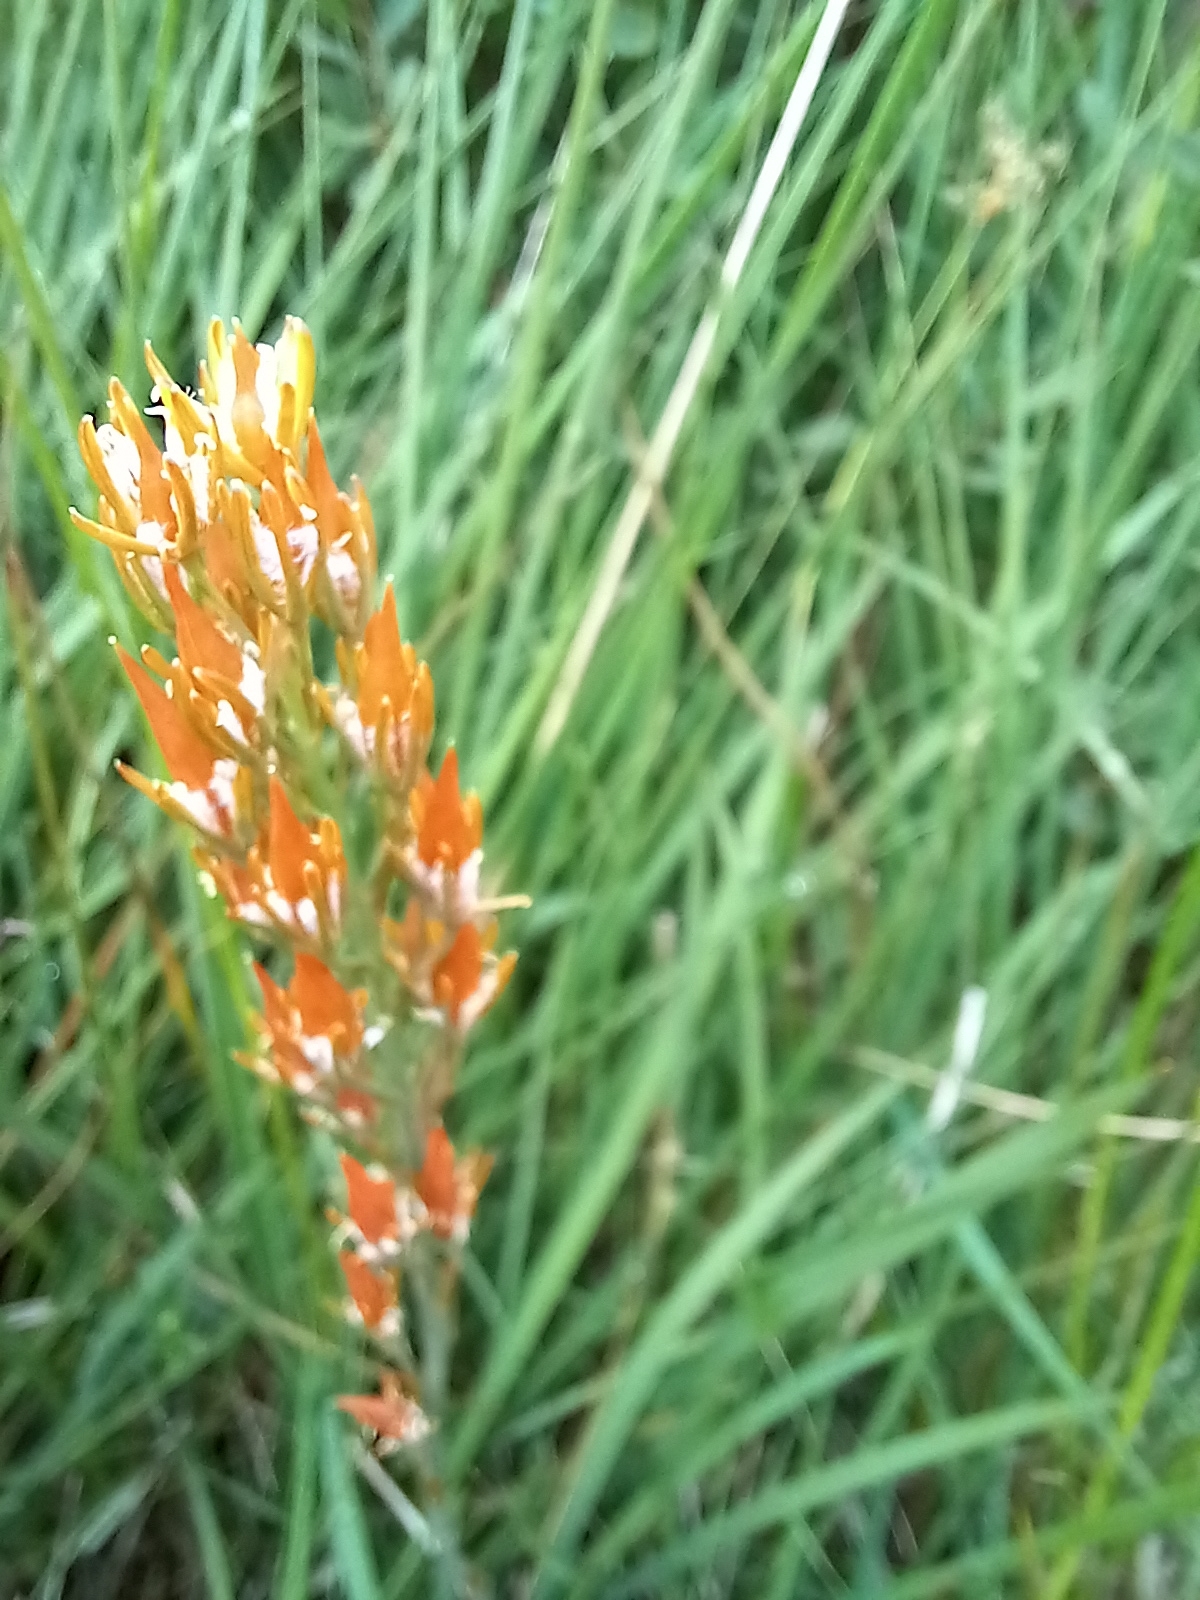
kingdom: Plantae
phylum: Tracheophyta
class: Liliopsida
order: Dioscoreales
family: Nartheciaceae
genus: Narthecium
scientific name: Narthecium ossifragum
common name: Bog asphodel
